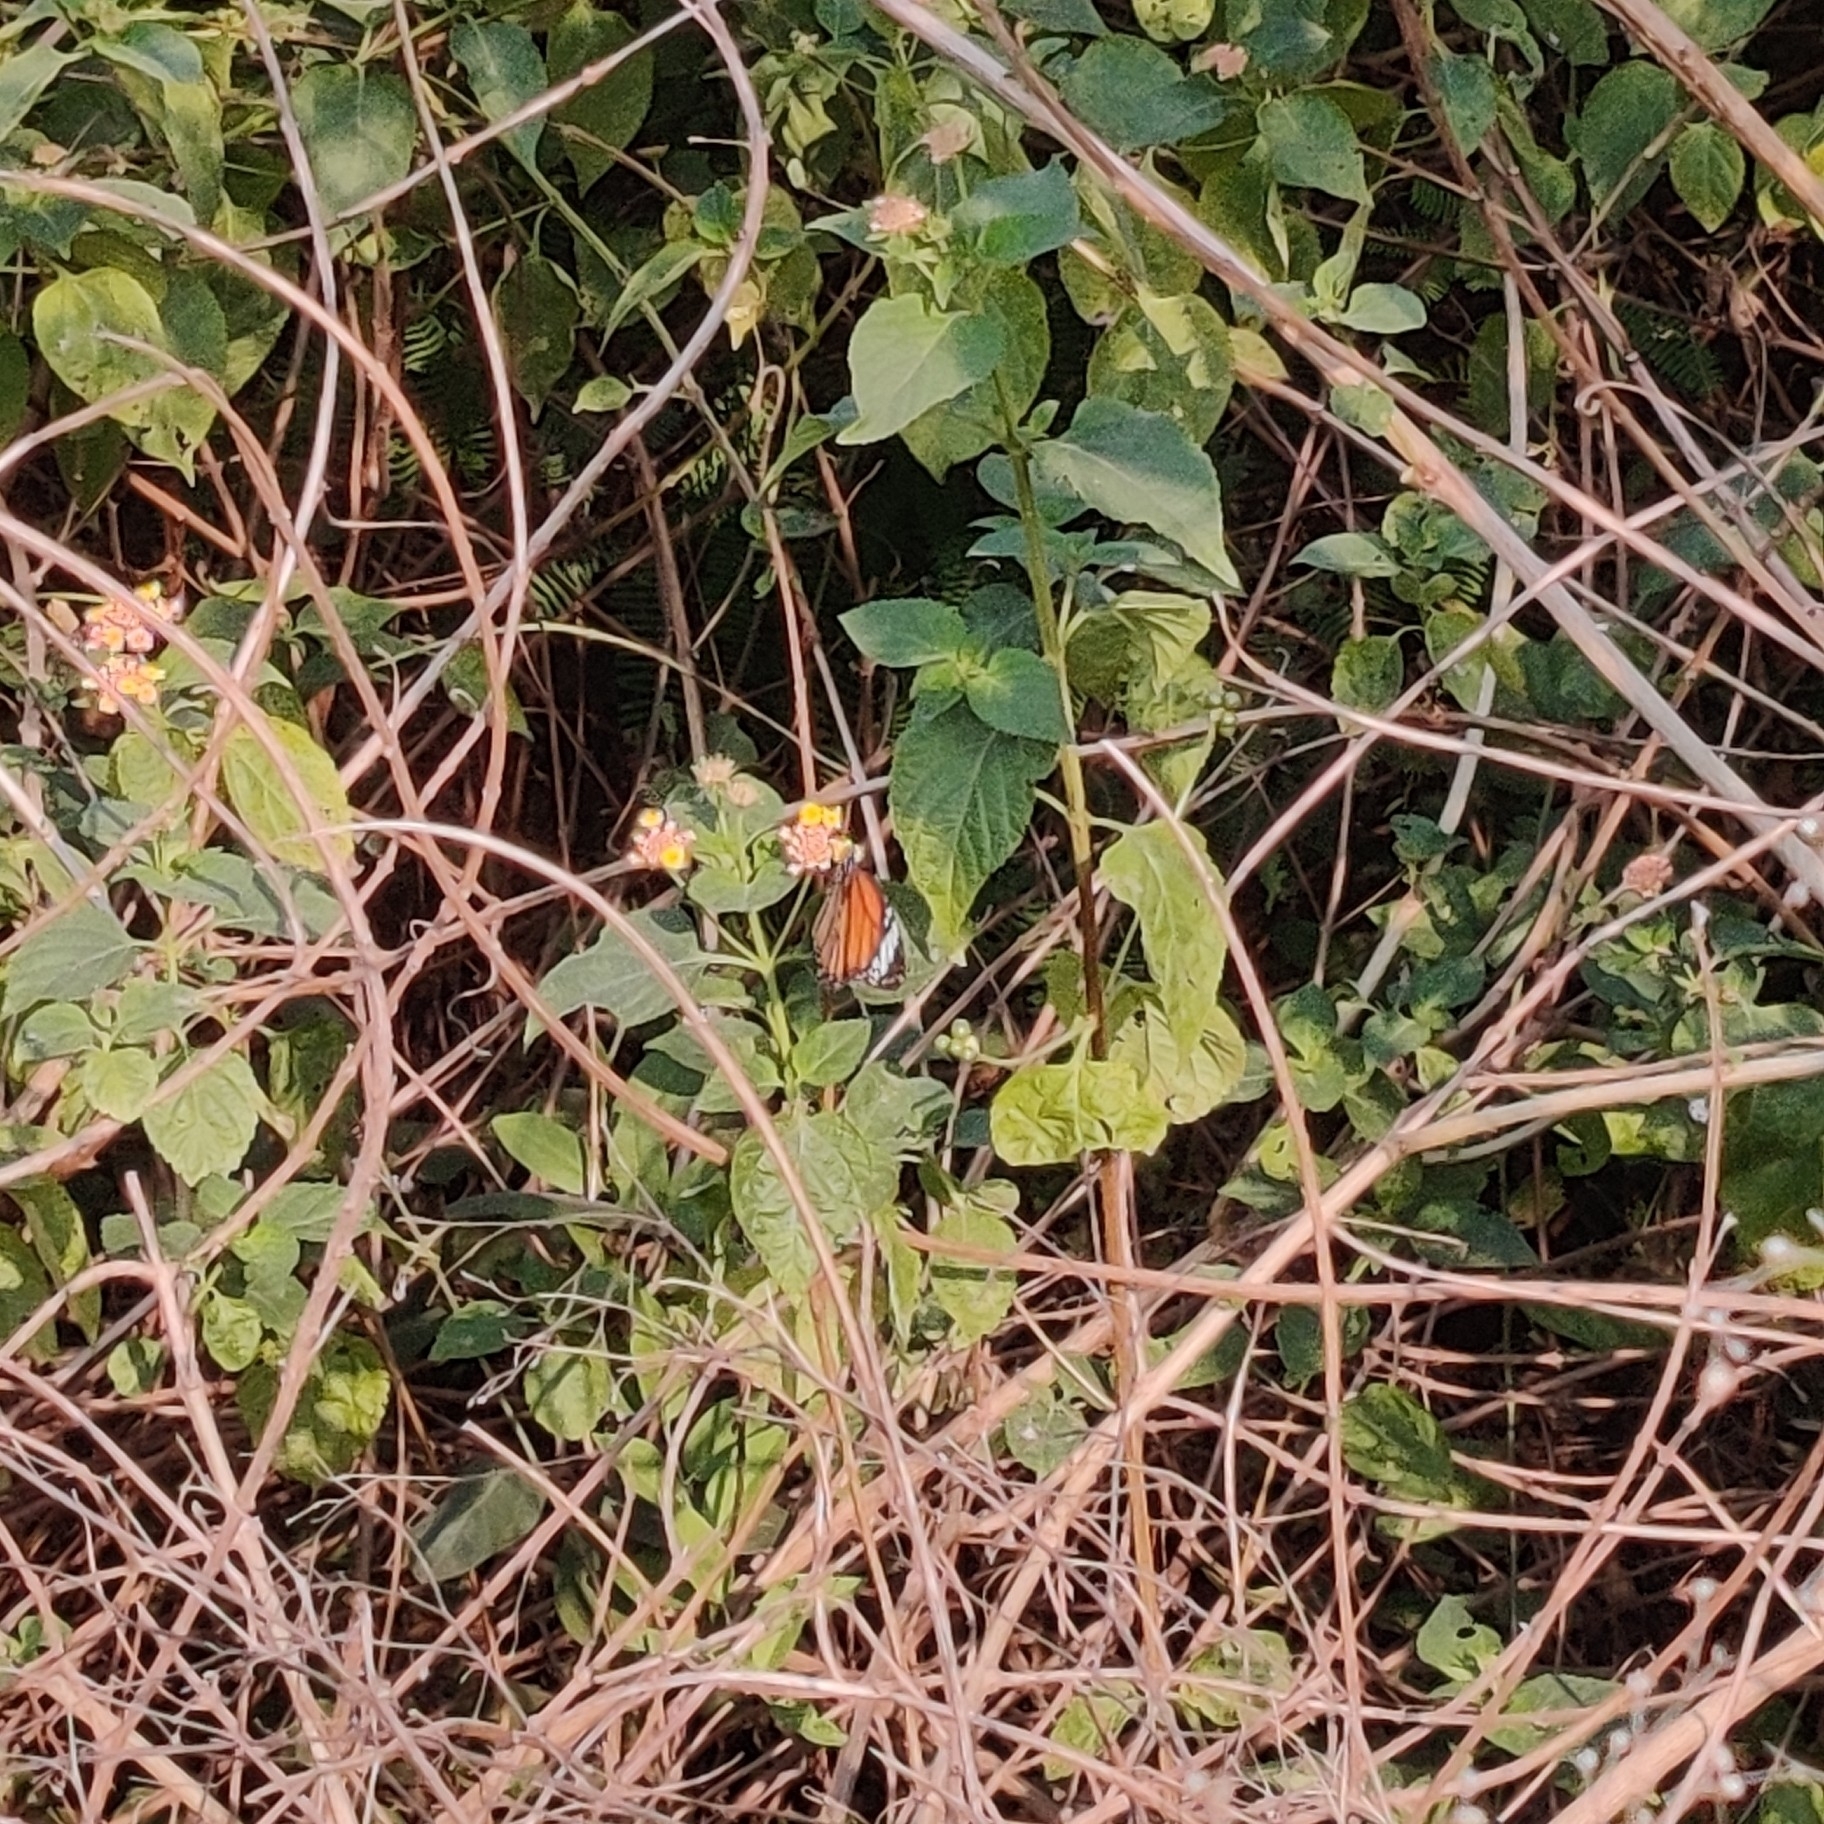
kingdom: Animalia
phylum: Arthropoda
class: Insecta
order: Lepidoptera
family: Nymphalidae
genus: Danaus
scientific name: Danaus genutia
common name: Common tiger butterfly
